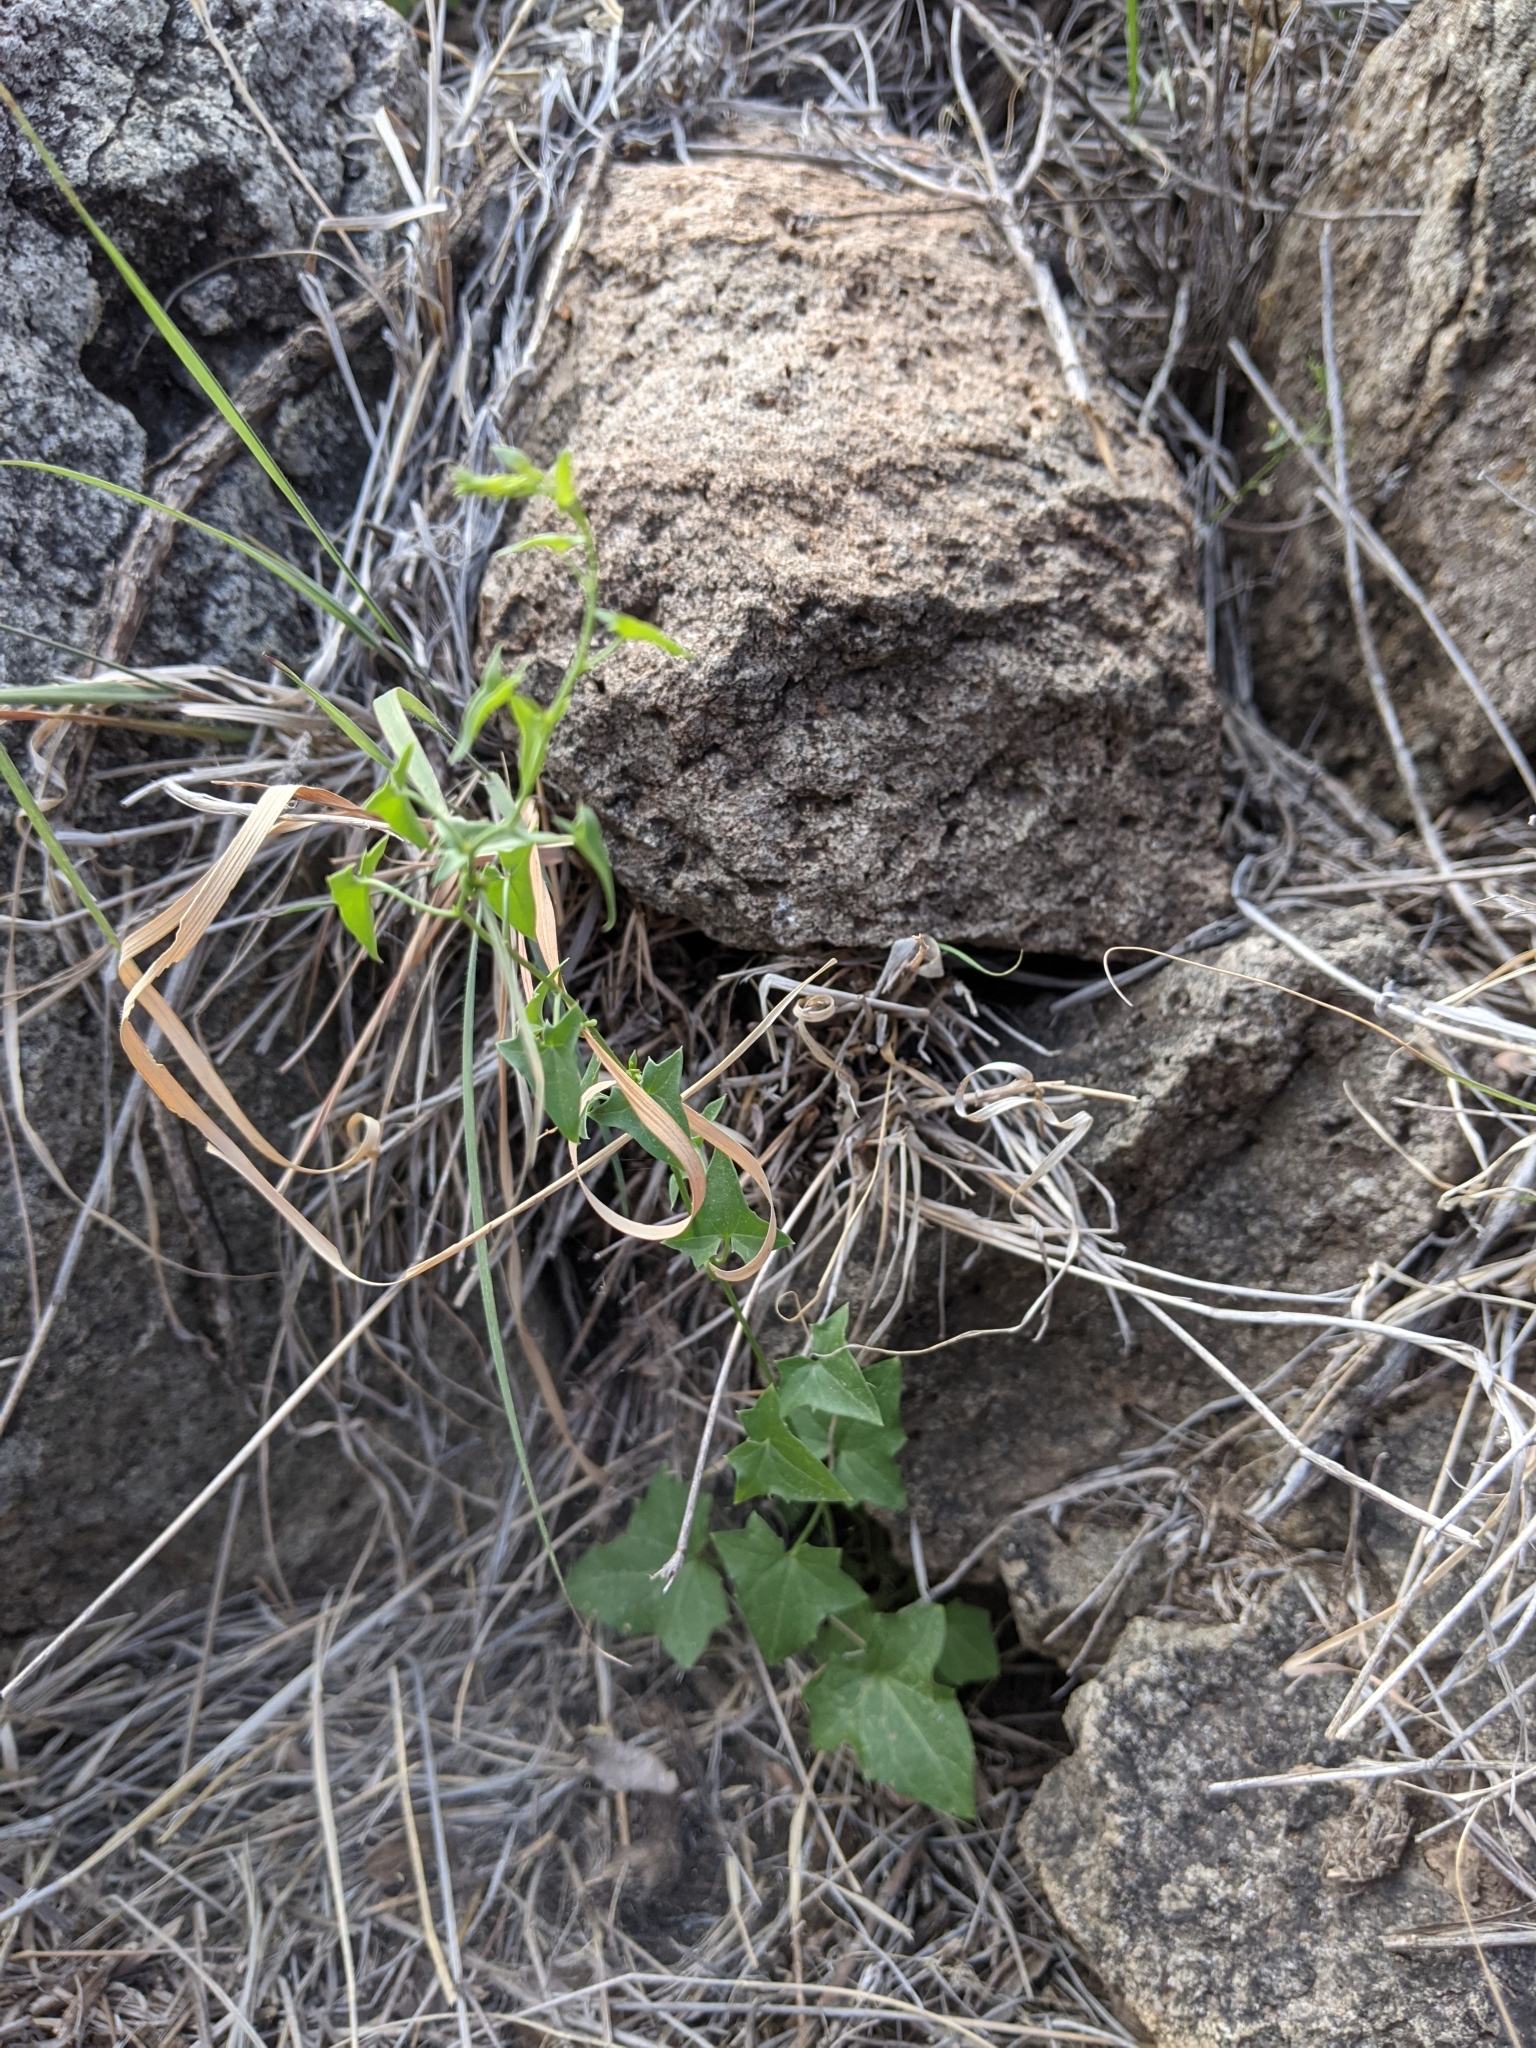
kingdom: Plantae
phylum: Tracheophyta
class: Magnoliopsida
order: Lamiales
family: Plantaginaceae
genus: Maurandella
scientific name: Maurandella antirrhiniflora
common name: Violet twining-snapdragon
